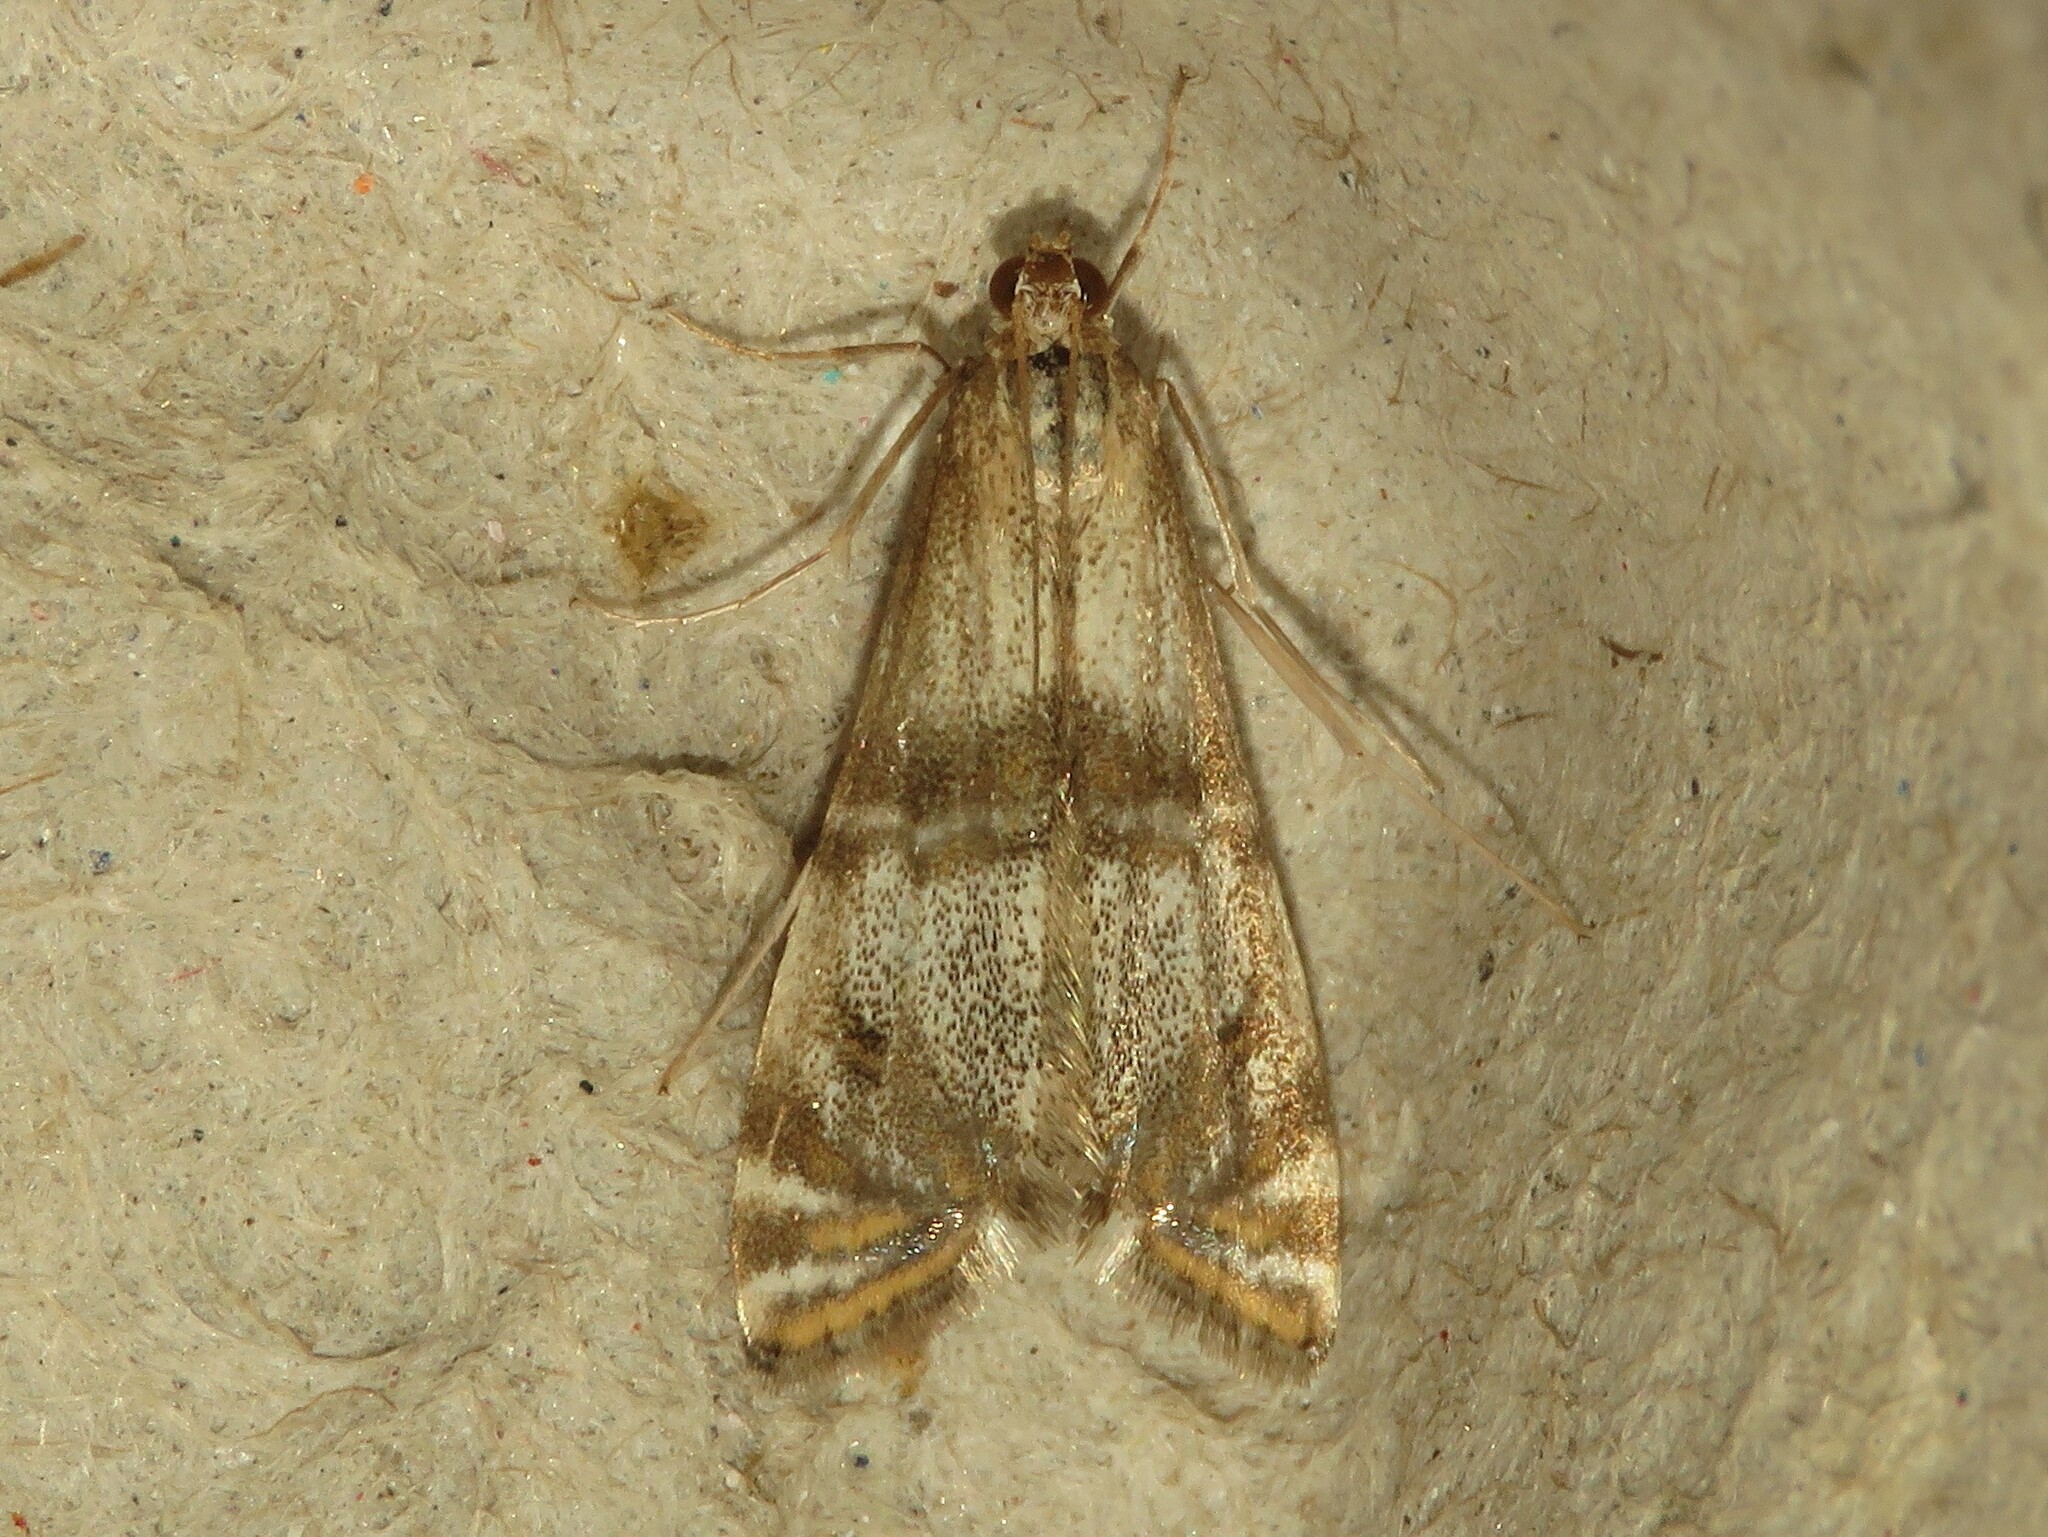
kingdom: Animalia
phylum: Arthropoda
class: Insecta
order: Lepidoptera
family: Crambidae
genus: Petrophila
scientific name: Petrophila bifascialis
